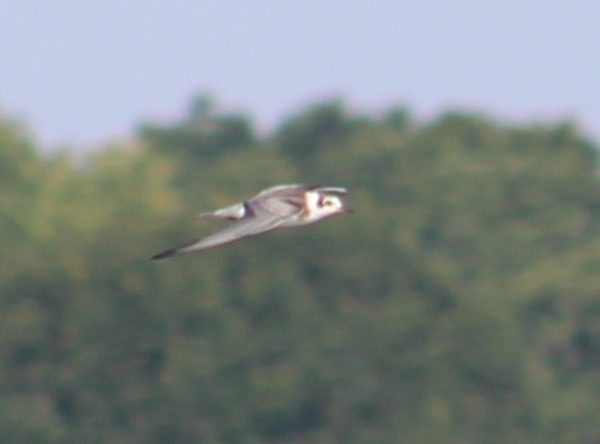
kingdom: Animalia
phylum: Chordata
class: Aves
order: Charadriiformes
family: Laridae
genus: Chlidonias
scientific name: Chlidonias niger
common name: Black tern
